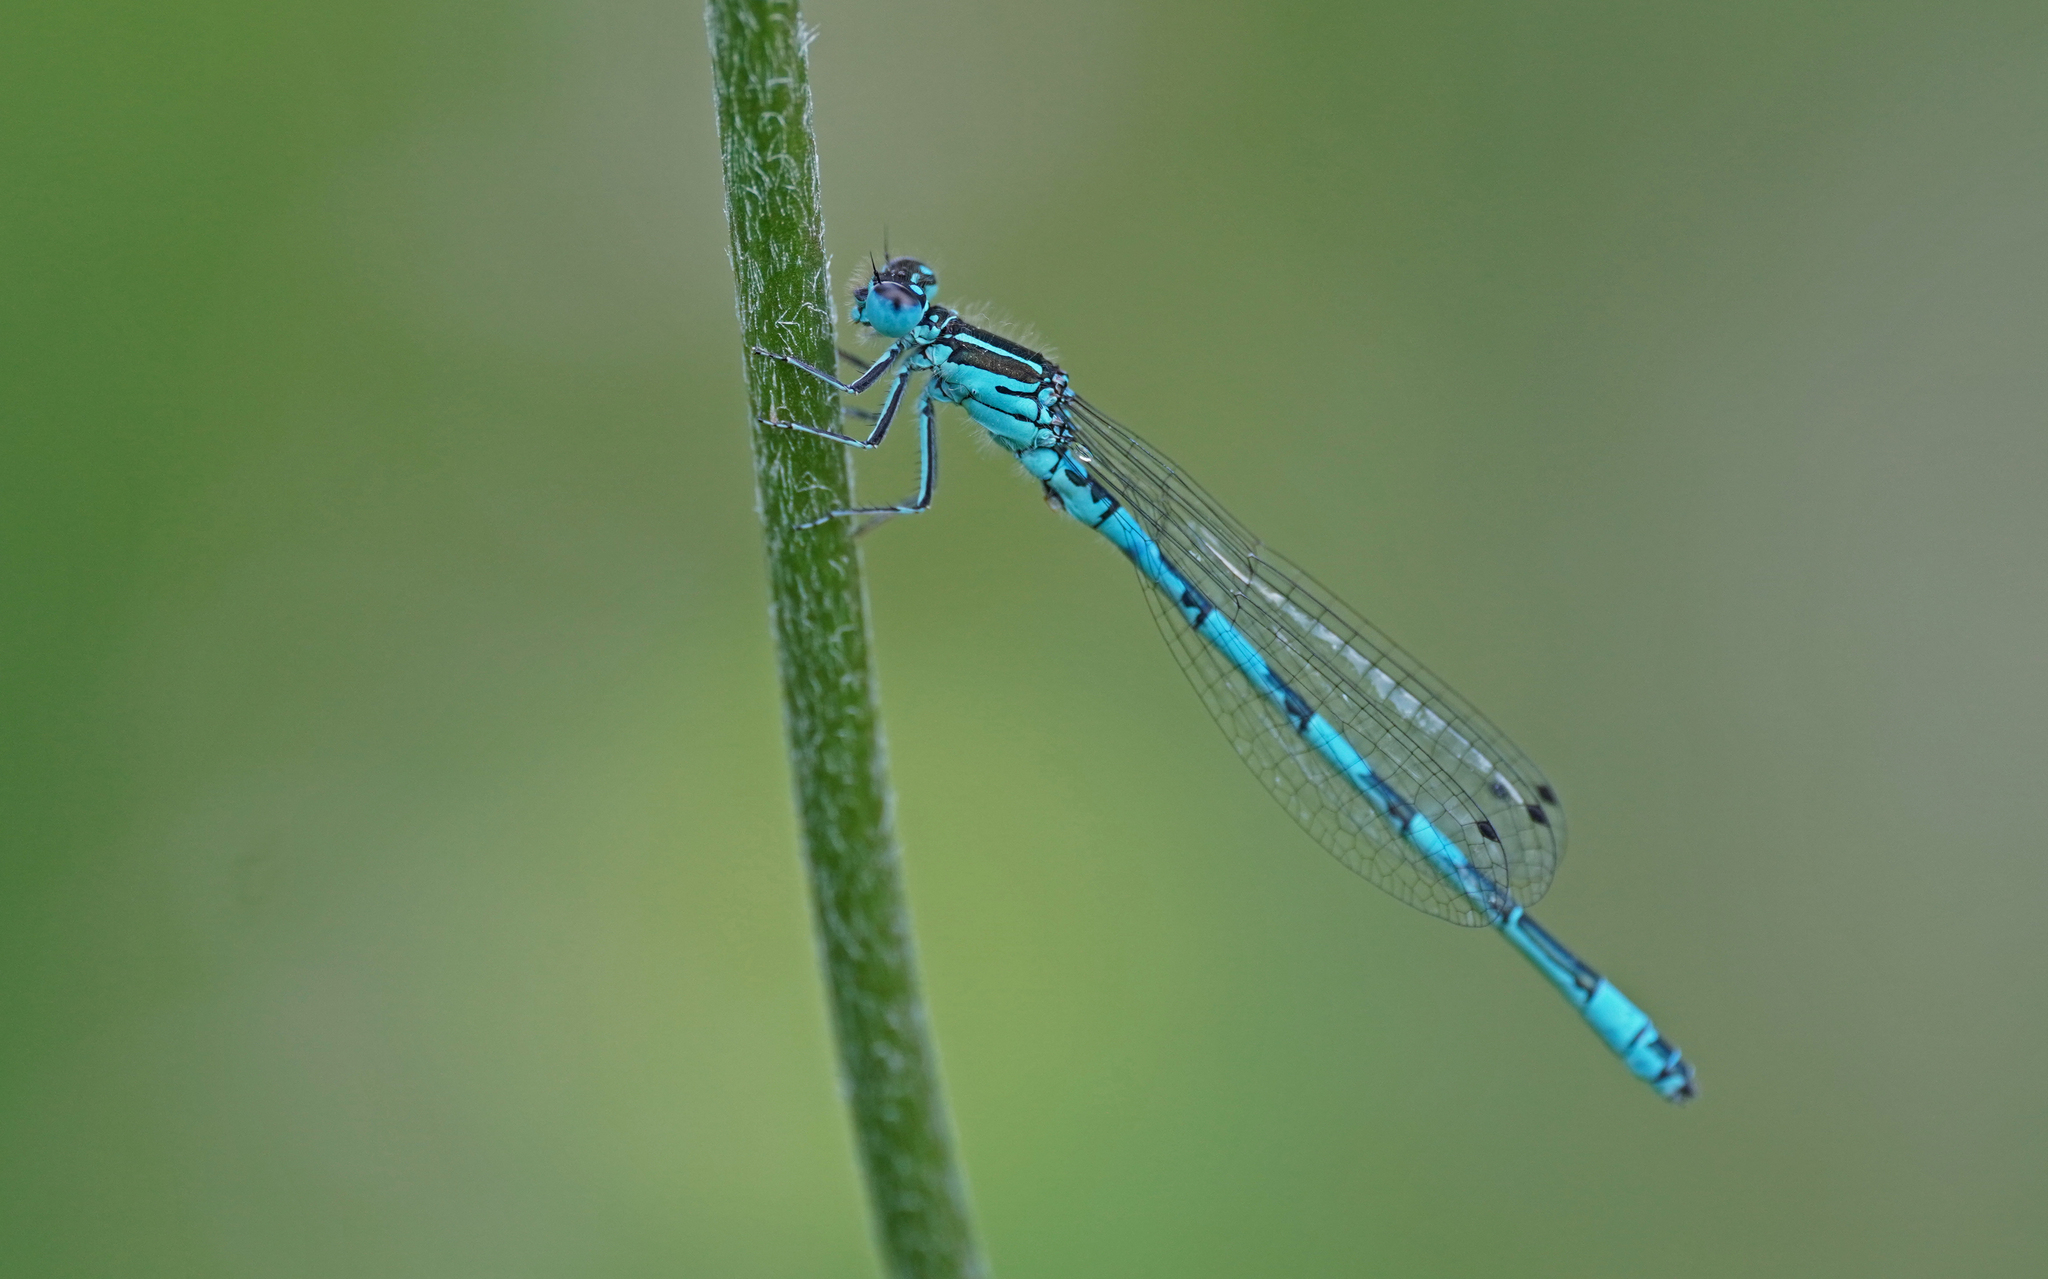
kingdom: Animalia
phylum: Arthropoda
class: Insecta
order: Odonata
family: Coenagrionidae
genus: Coenagrion
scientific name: Coenagrion mercuriale
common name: Southern damselfly
